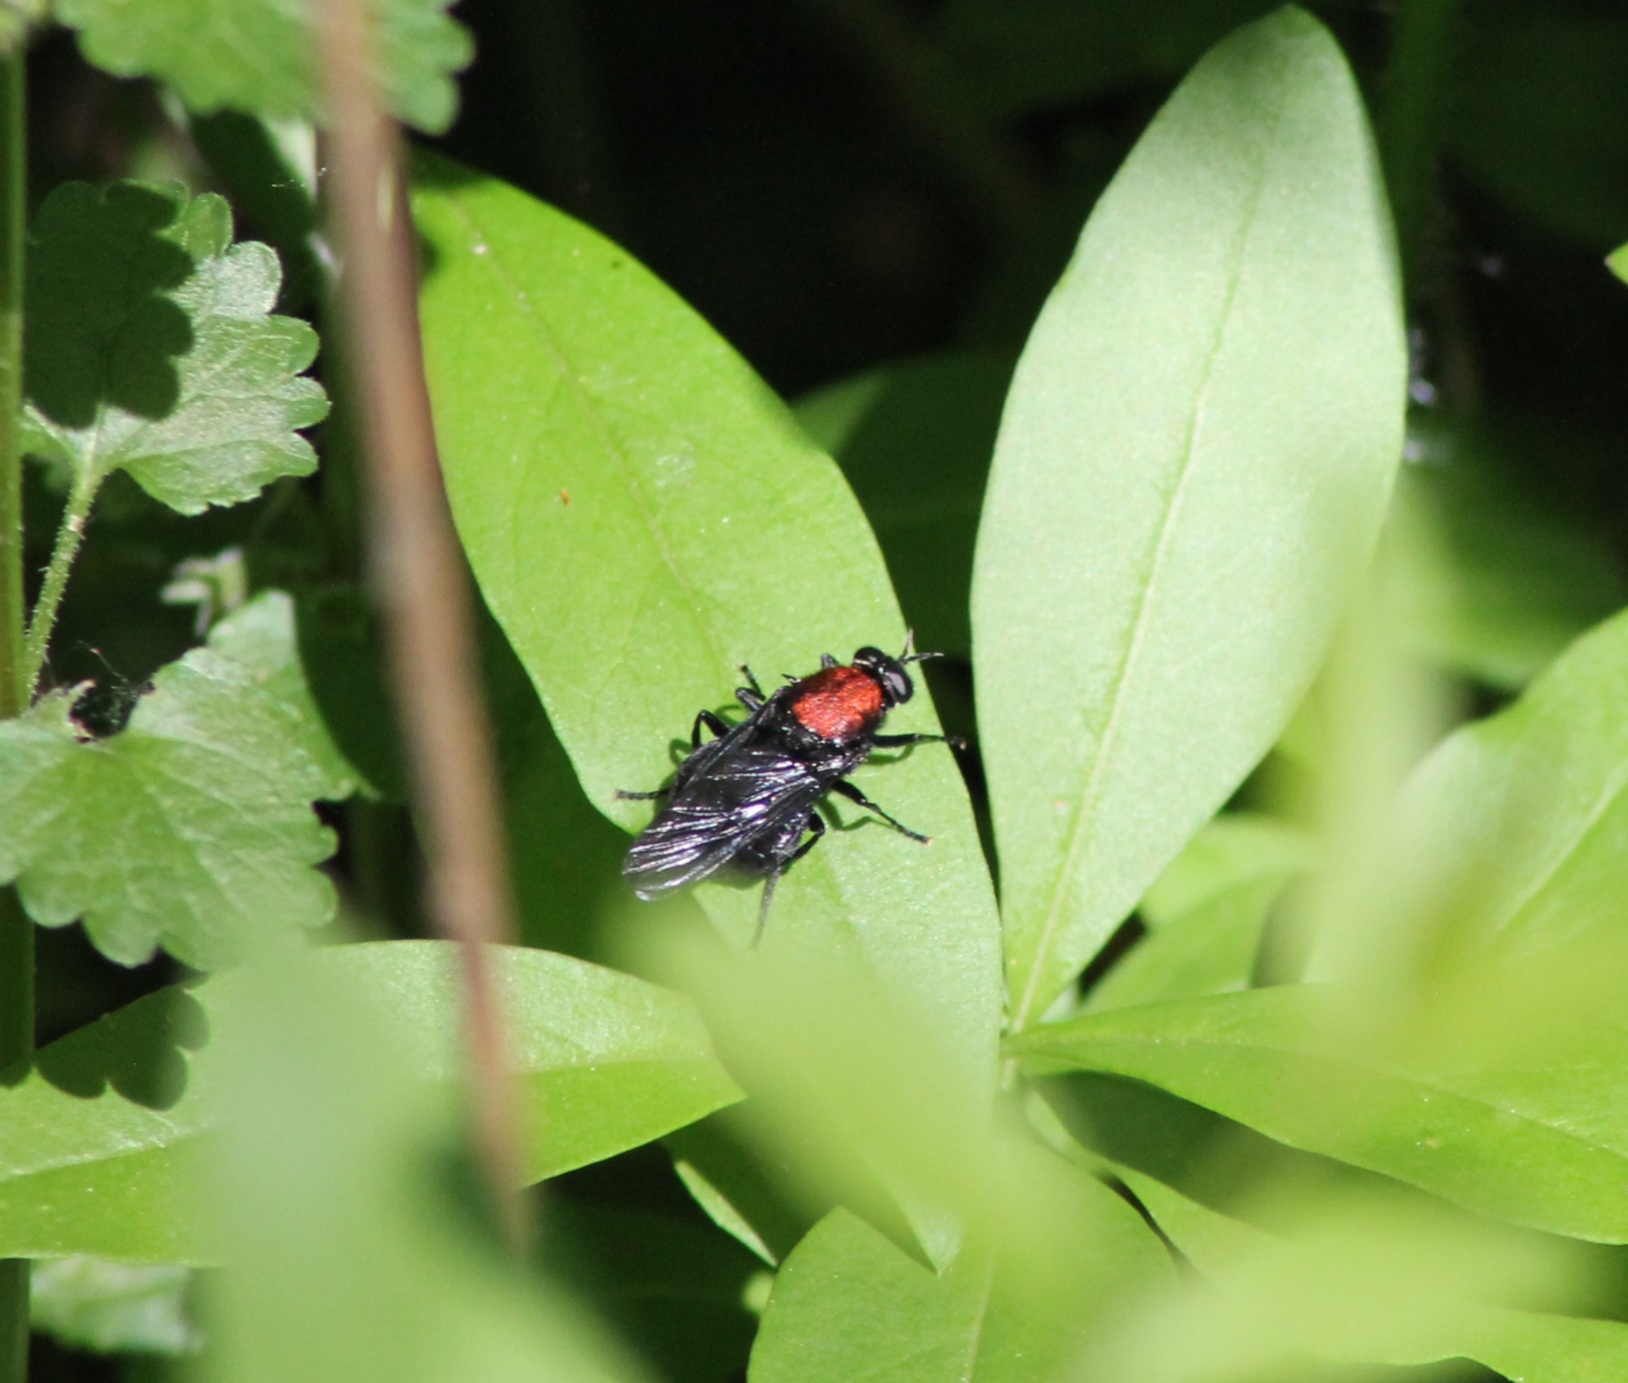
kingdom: Animalia
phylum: Arthropoda
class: Insecta
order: Diptera
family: Stratiomyidae
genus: Clitellaria
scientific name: Clitellaria ephippium
